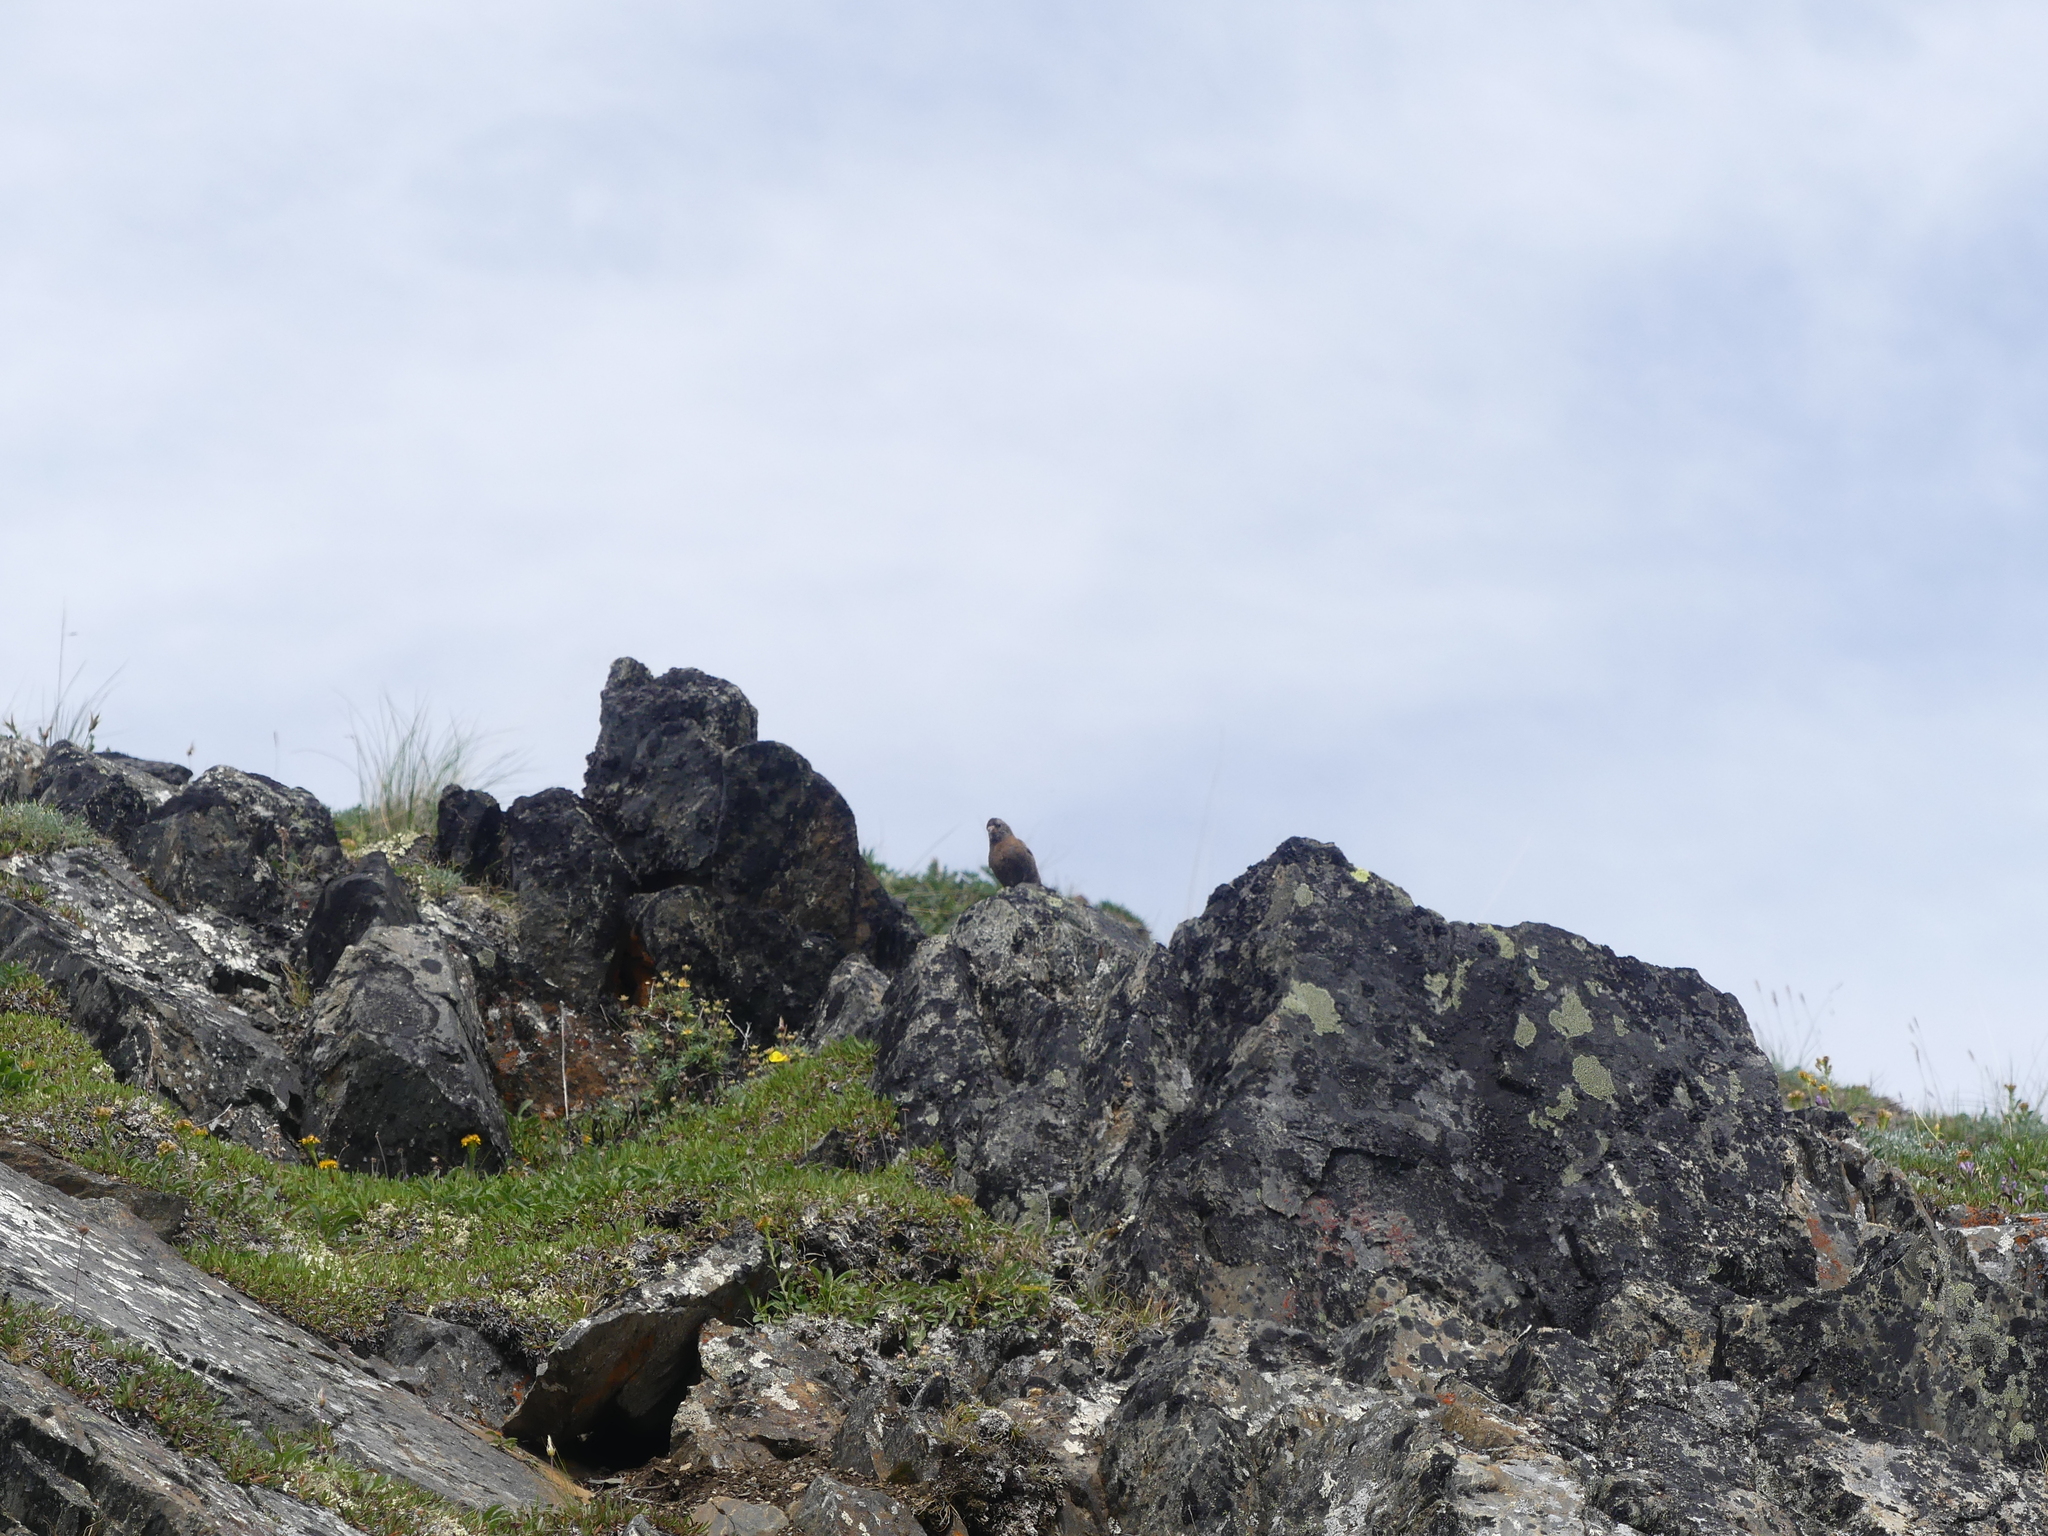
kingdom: Animalia
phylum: Chordata
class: Aves
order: Passeriformes
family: Fringillidae
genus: Leucosticte
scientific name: Leucosticte tephrocotis
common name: Gray-crowned rosy-finch
